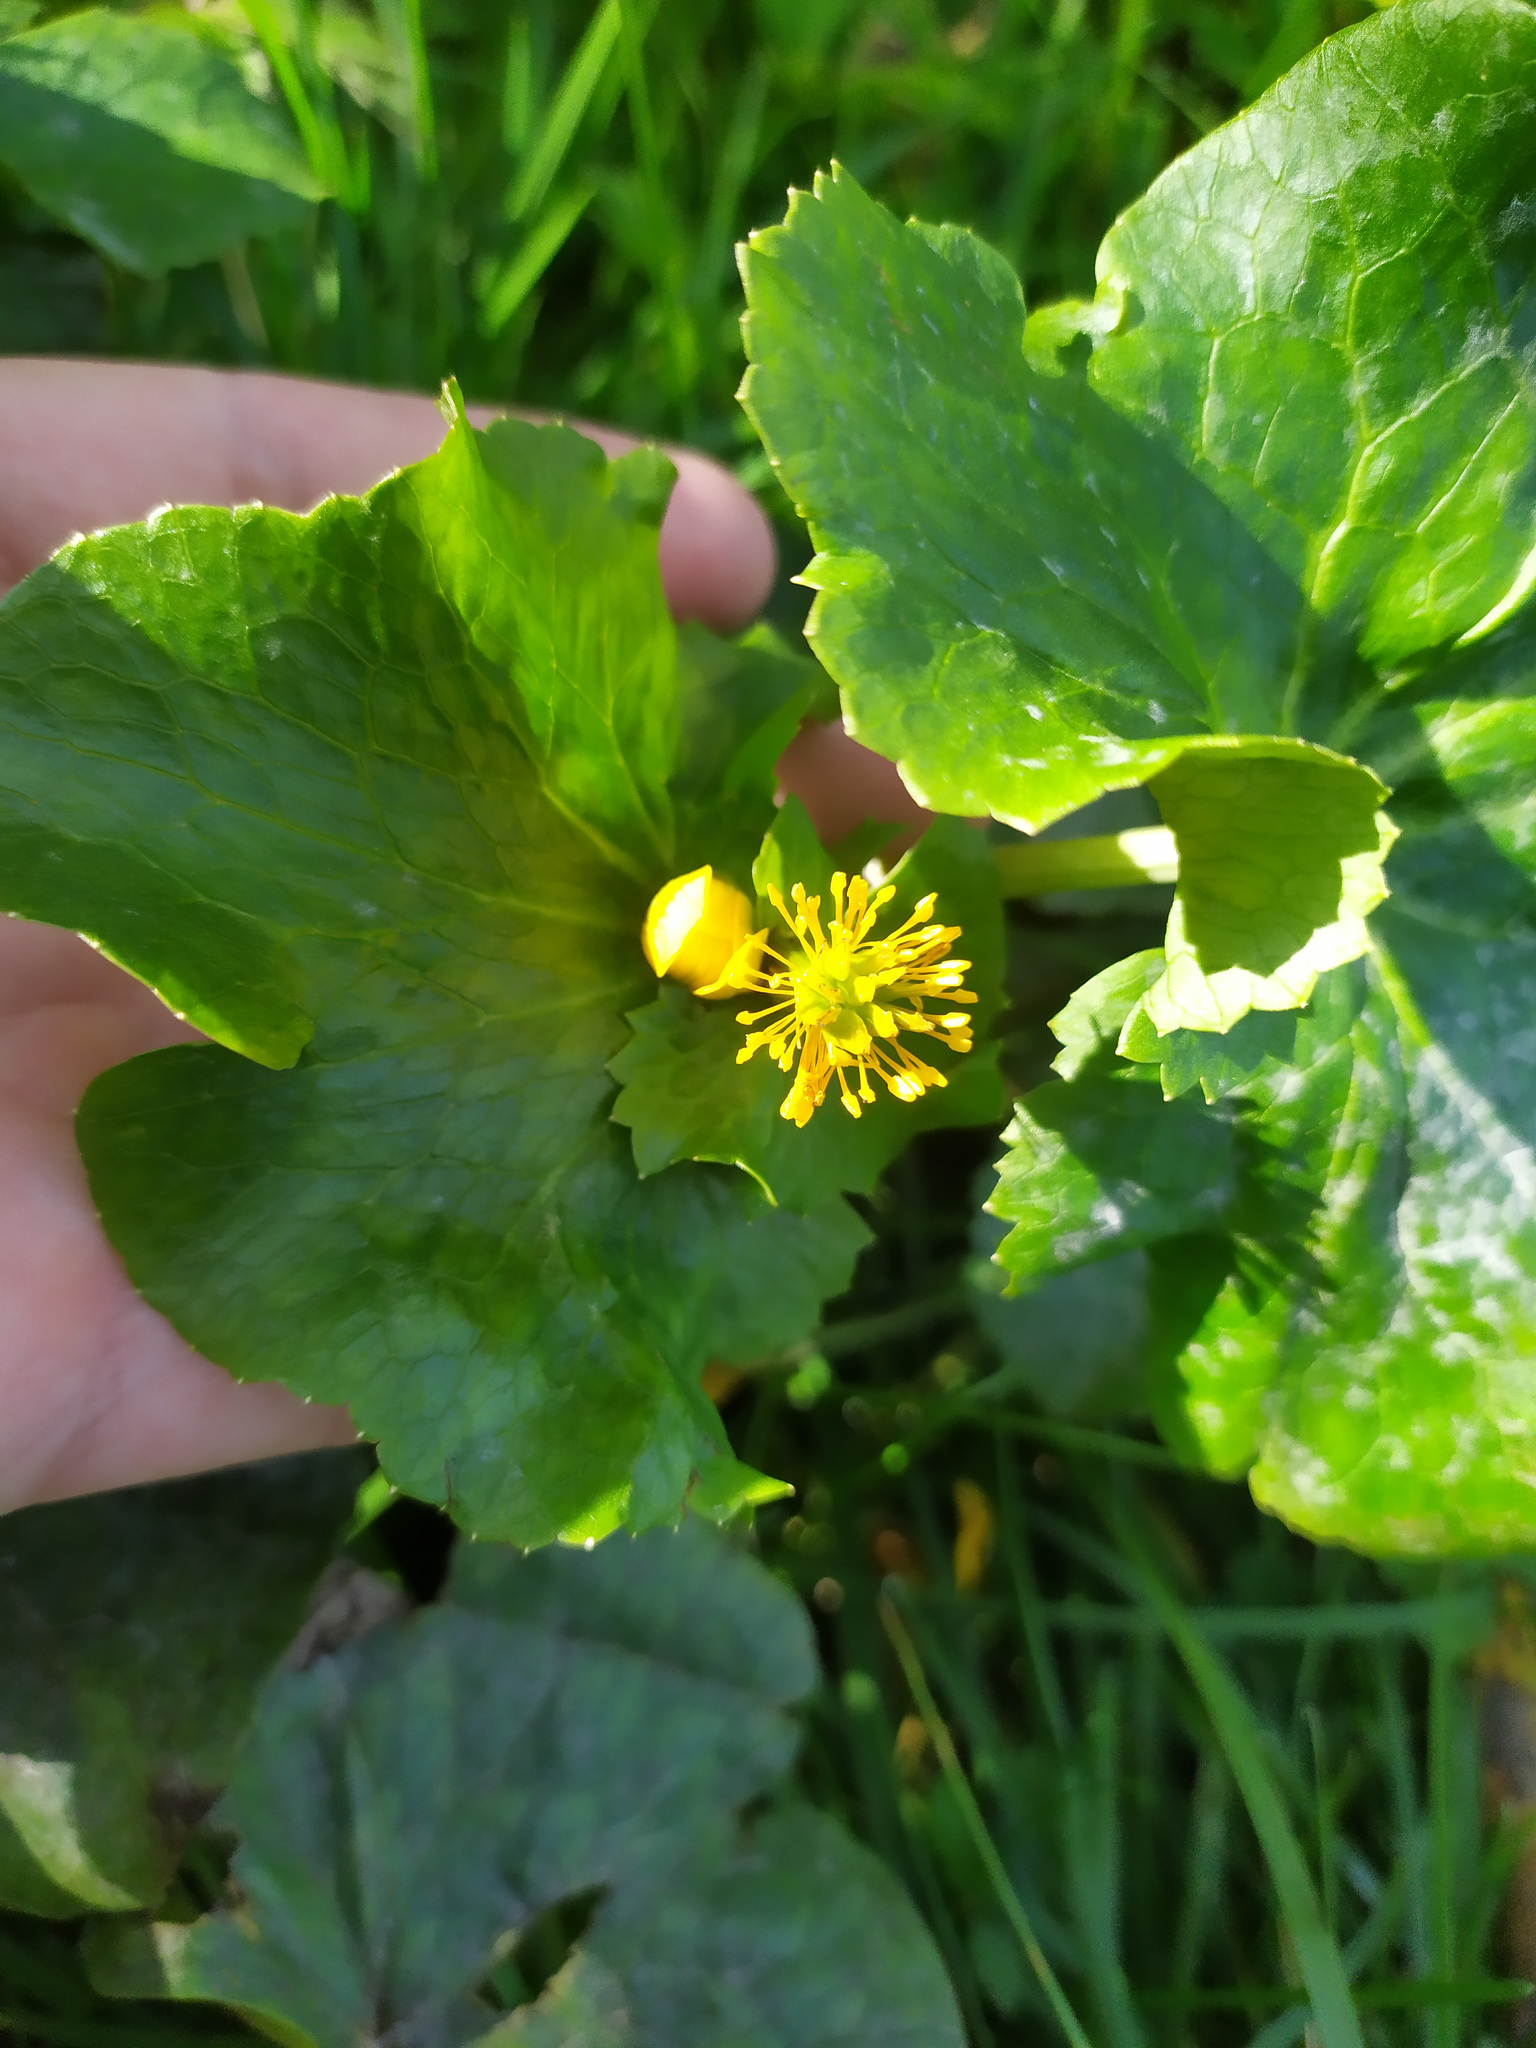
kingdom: Plantae
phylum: Tracheophyta
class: Magnoliopsida
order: Ranunculales
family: Ranunculaceae
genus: Caltha
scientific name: Caltha palustris
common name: Marsh marigold
